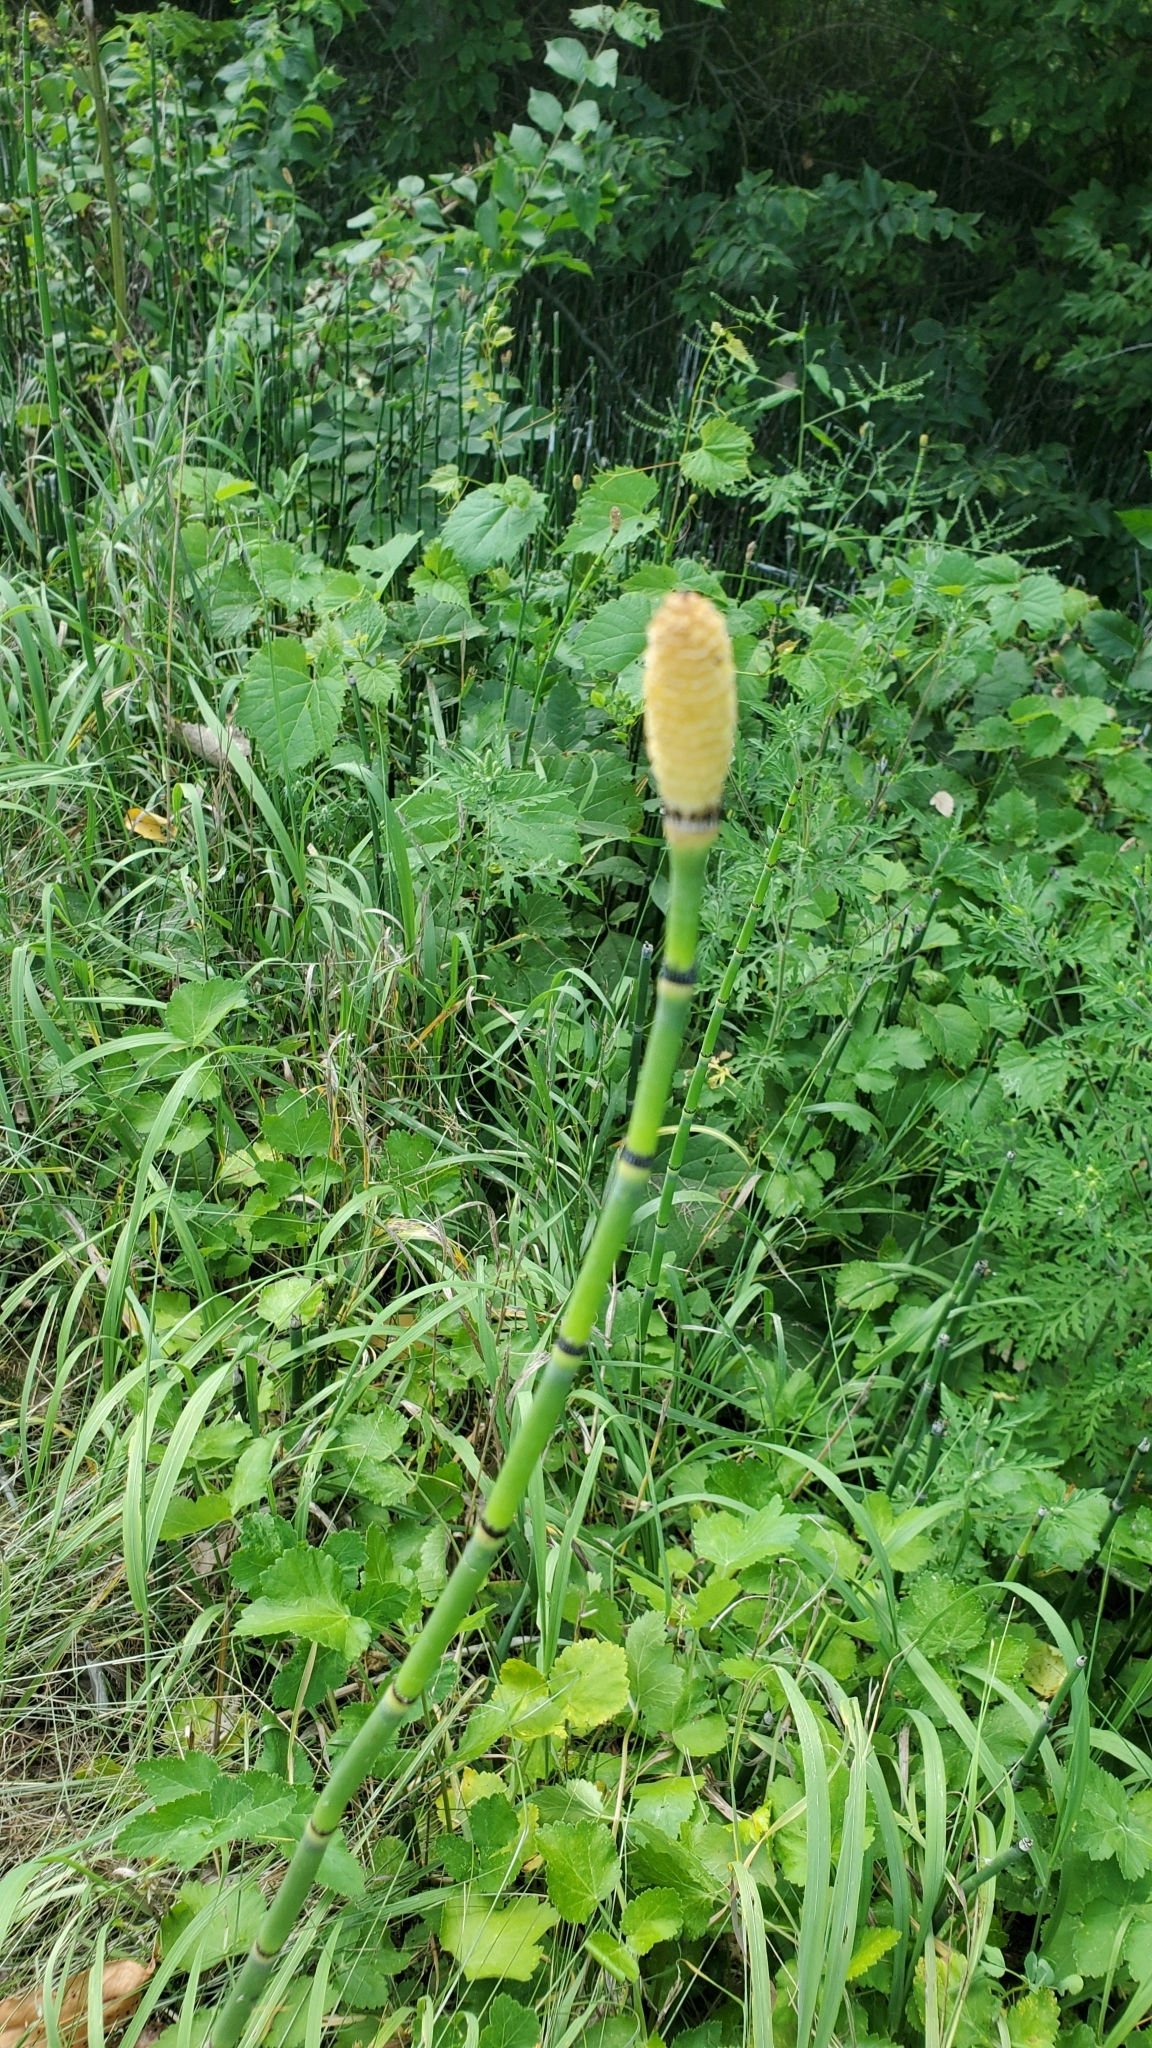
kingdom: Plantae
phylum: Tracheophyta
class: Polypodiopsida
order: Equisetales
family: Equisetaceae
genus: Equisetum
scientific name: Equisetum praealtum
